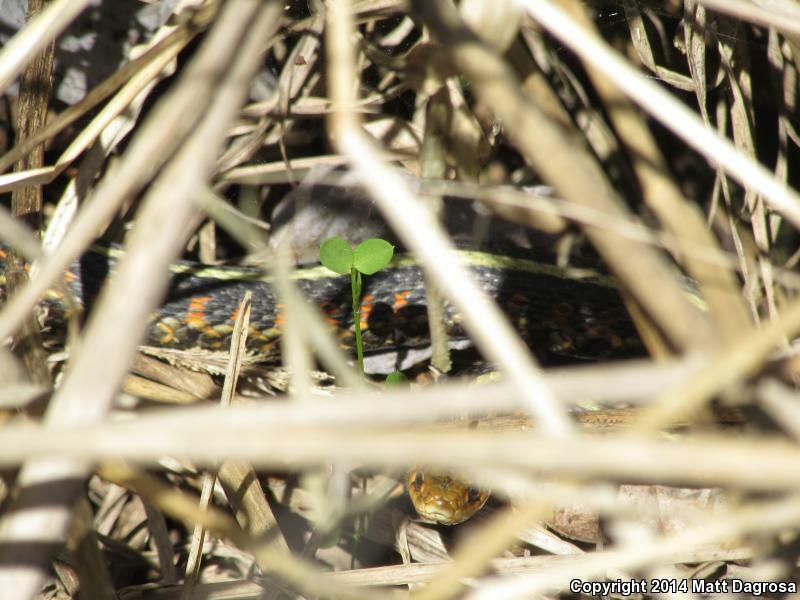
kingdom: Animalia
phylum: Chordata
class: Squamata
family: Colubridae
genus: Thamnophis
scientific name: Thamnophis sirtalis
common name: Common garter snake
